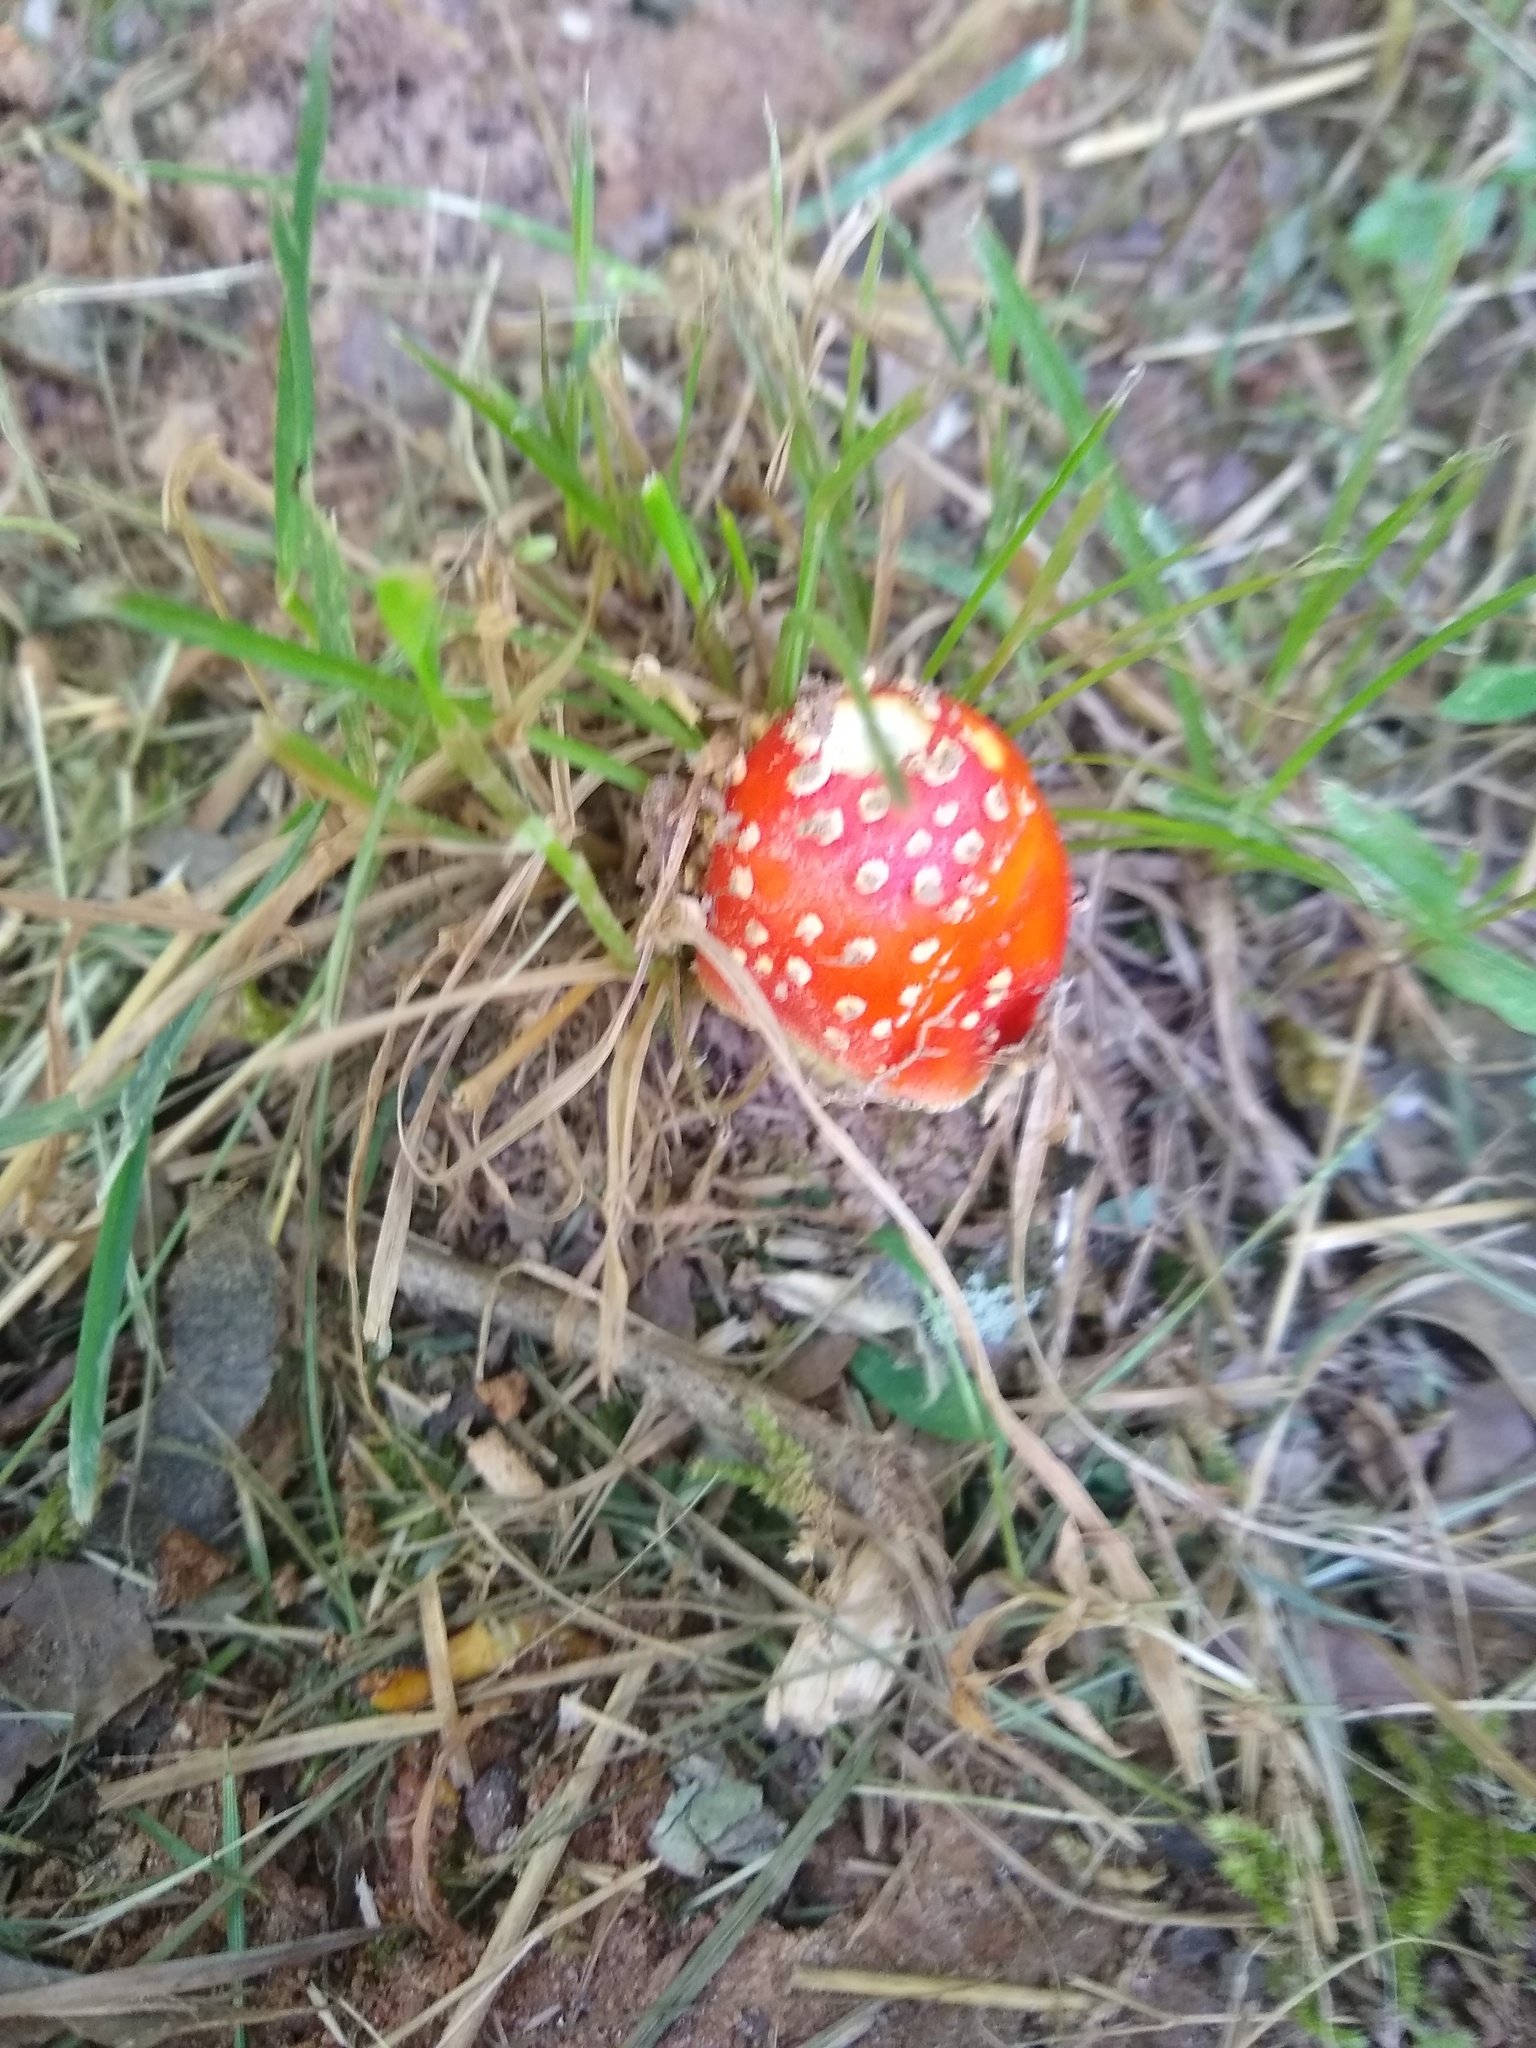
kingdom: Fungi
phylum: Basidiomycota
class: Agaricomycetes
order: Agaricales
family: Amanitaceae
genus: Amanita
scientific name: Amanita parcivolvata
